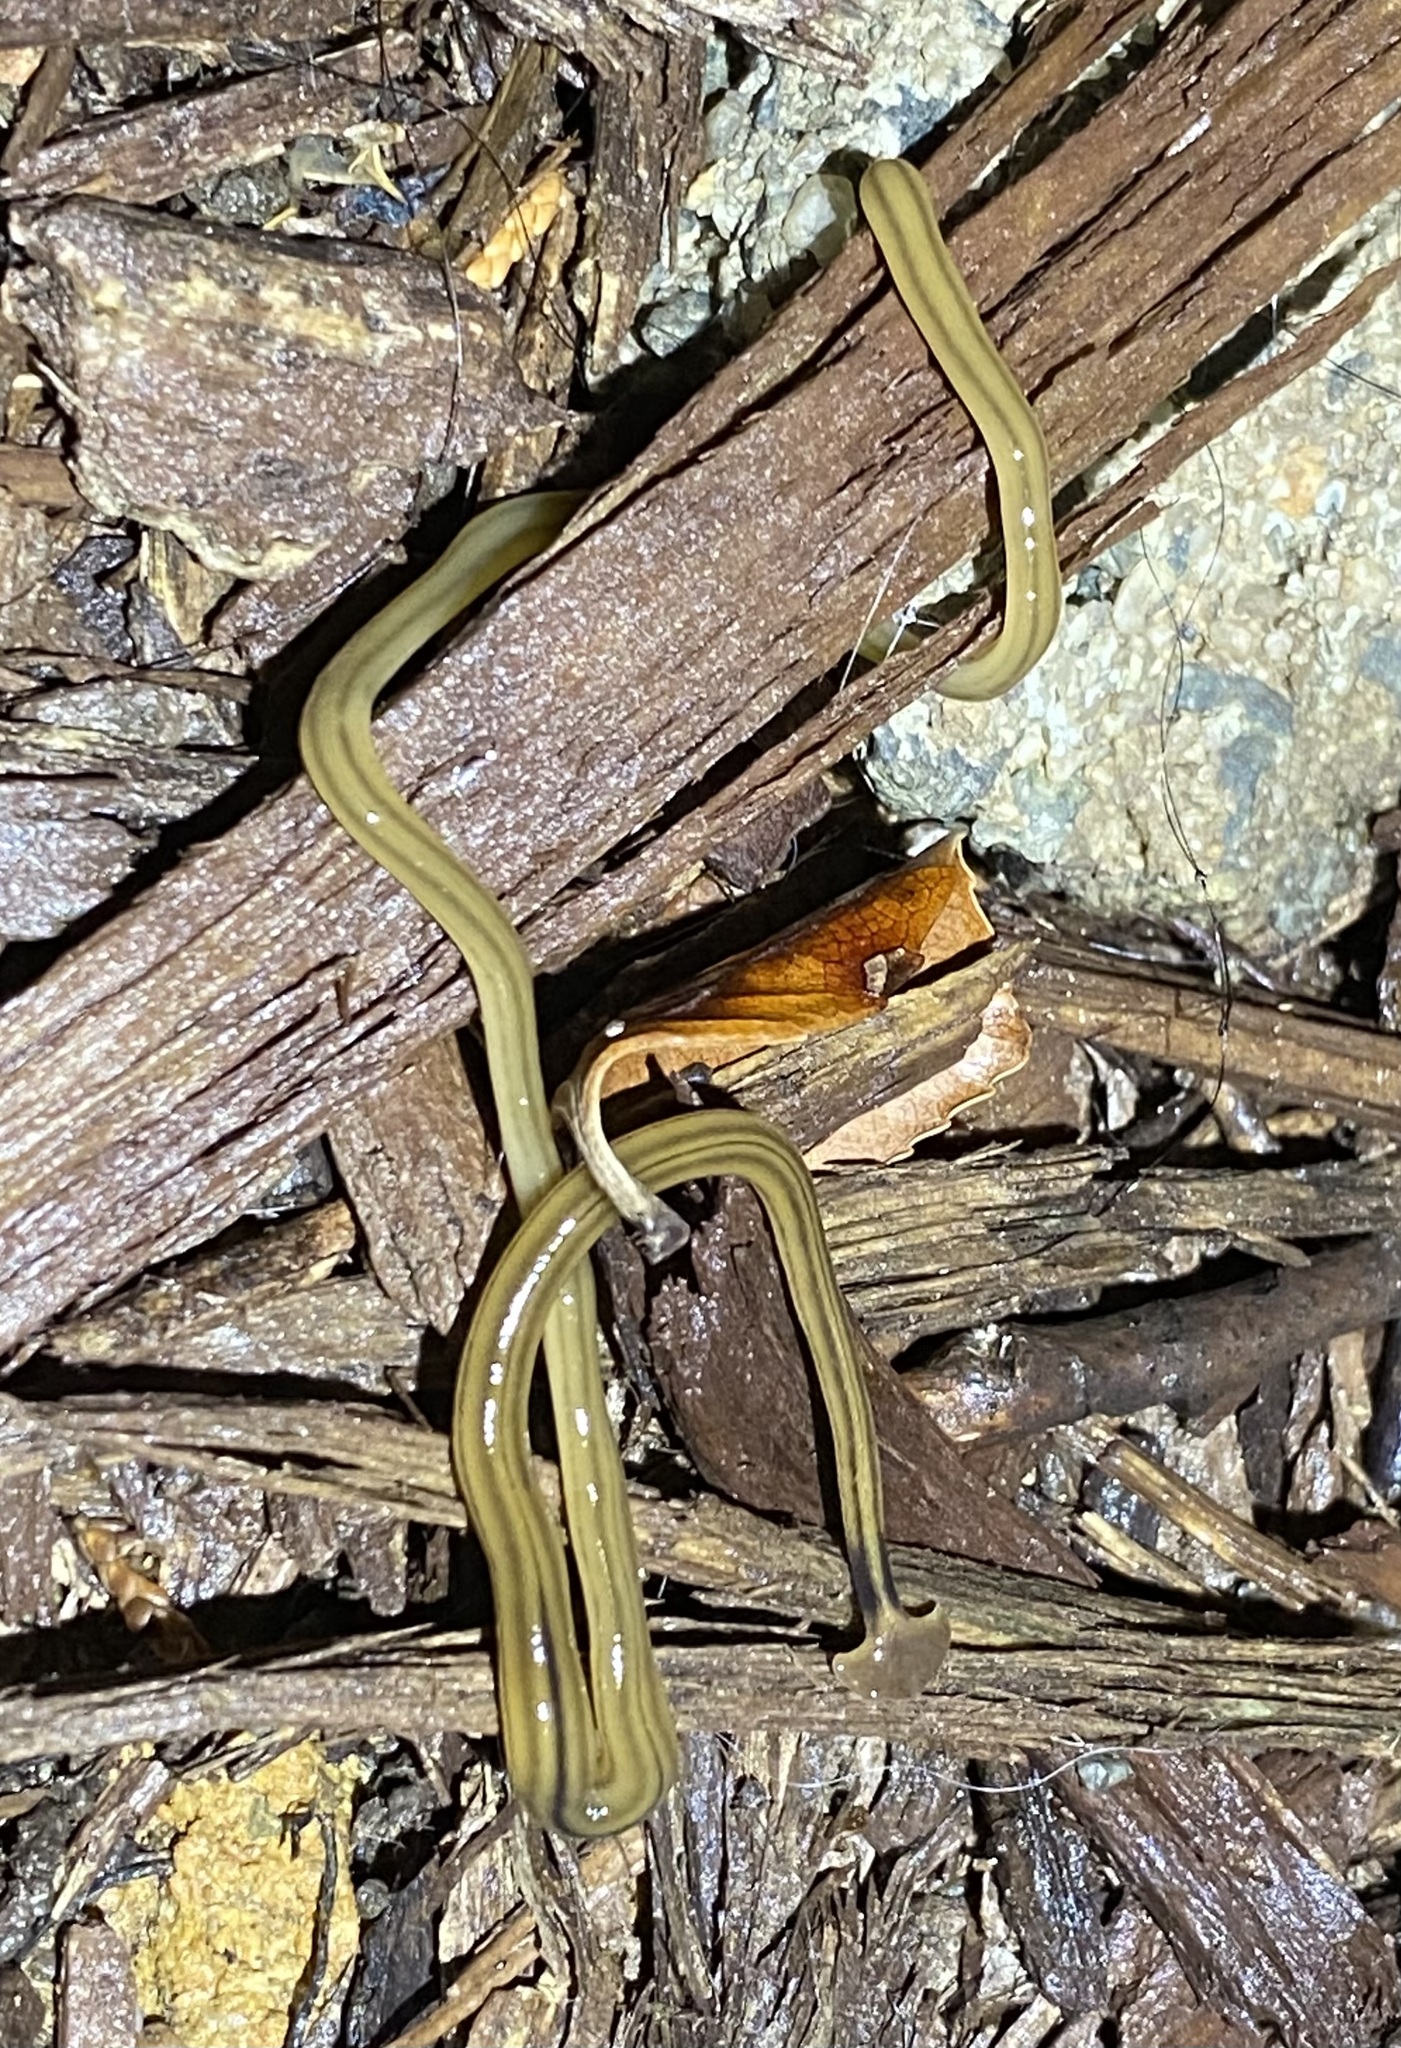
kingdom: Animalia
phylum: Platyhelminthes
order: Tricladida
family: Geoplanidae
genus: Bipalium
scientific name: Bipalium kewense
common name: Hammerhead flatworm
